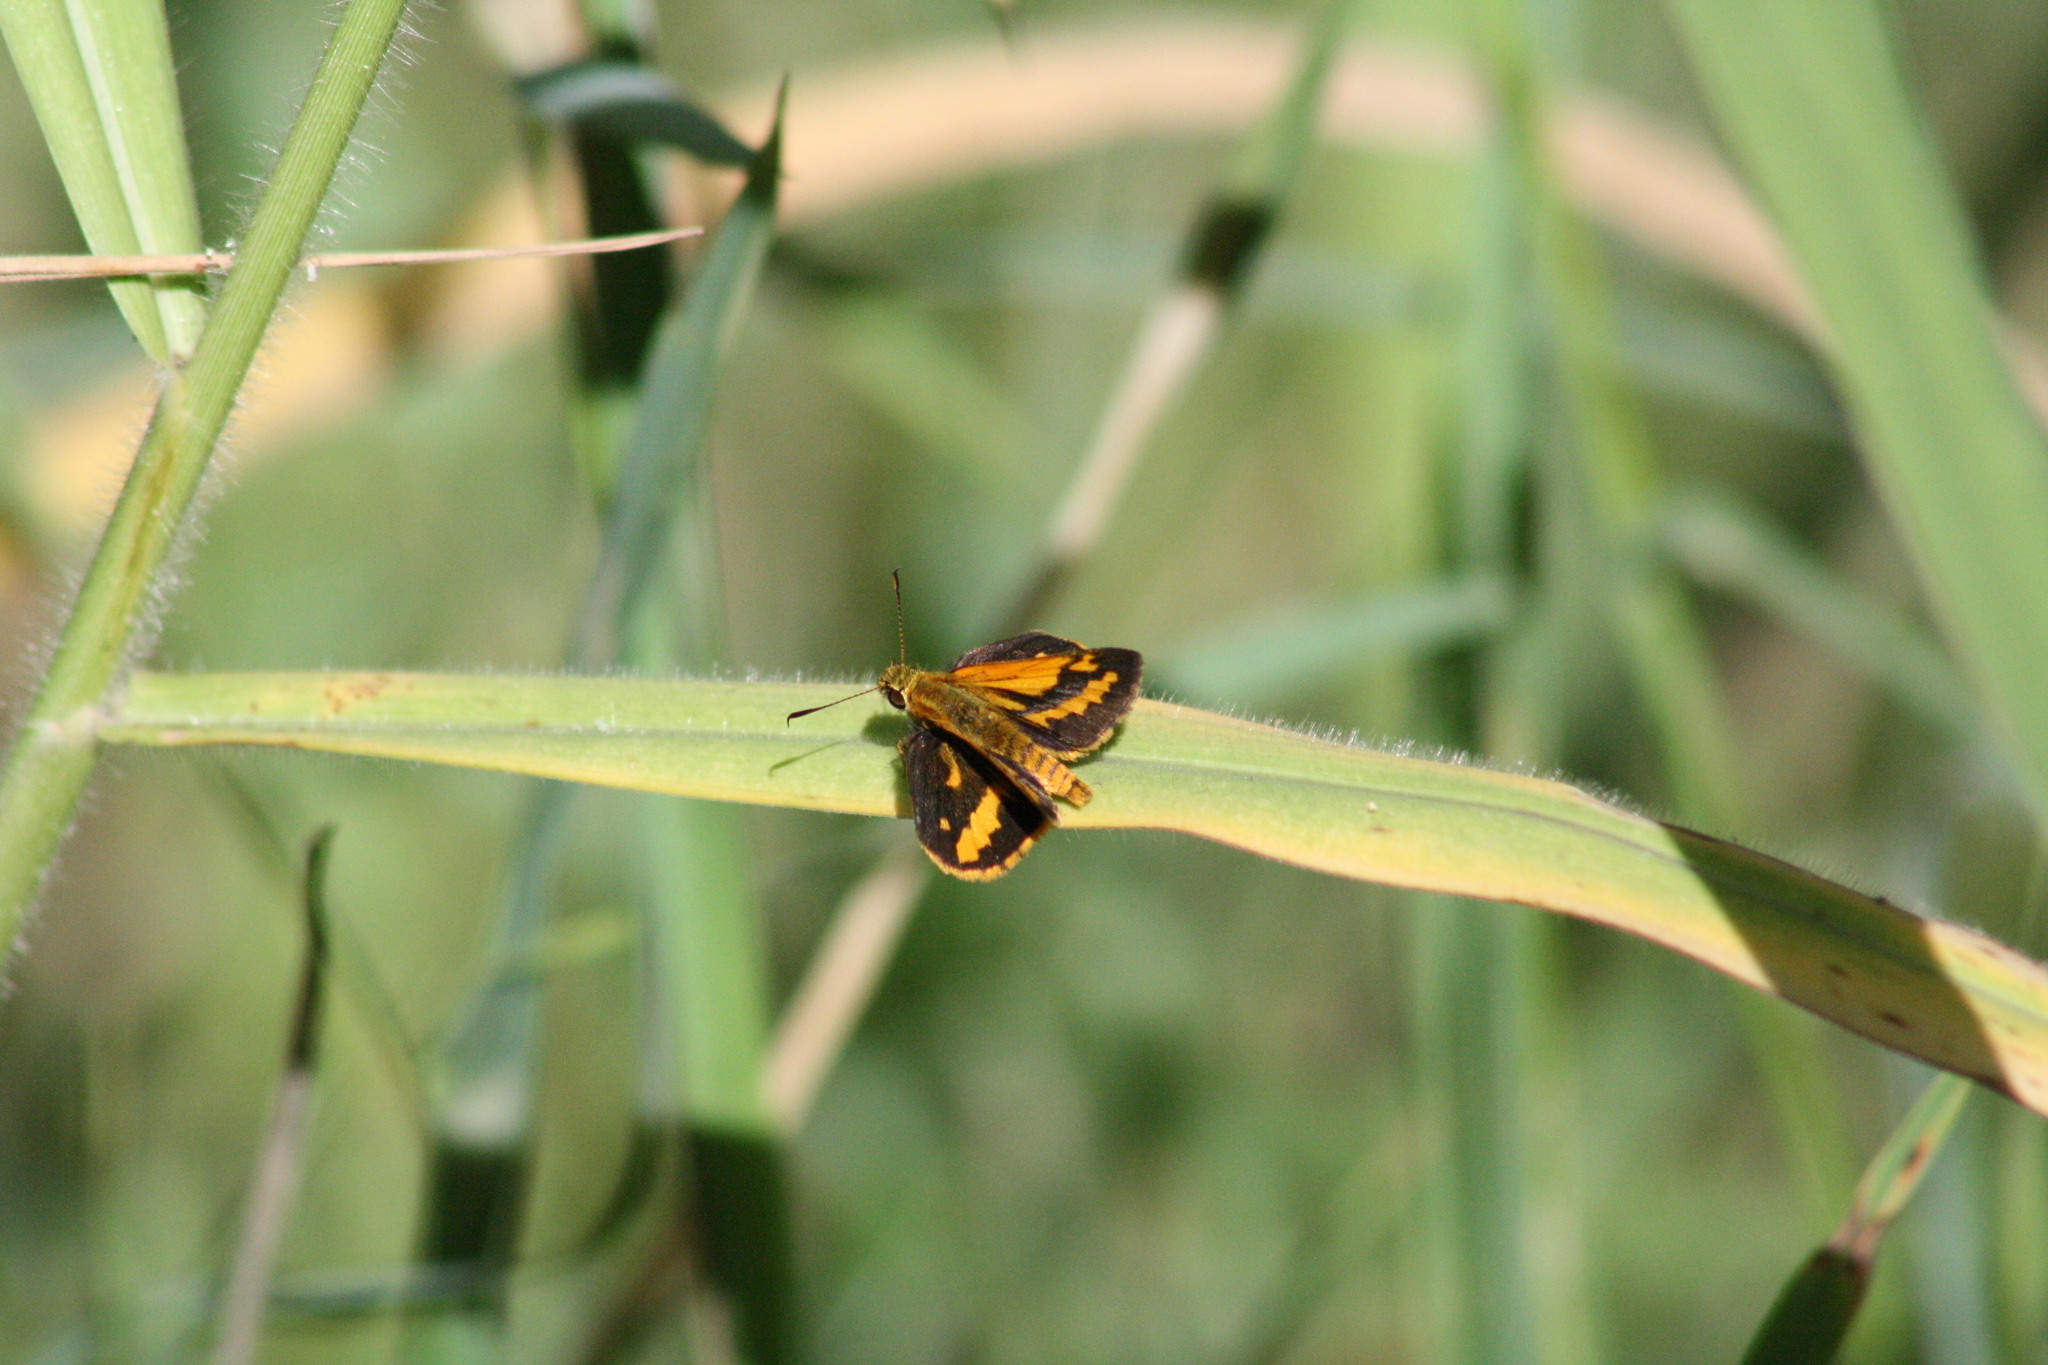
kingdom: Animalia
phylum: Arthropoda
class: Insecta
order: Lepidoptera
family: Hesperiidae
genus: Suniana
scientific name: Suniana sunias
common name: Wide-brand grass-dart
